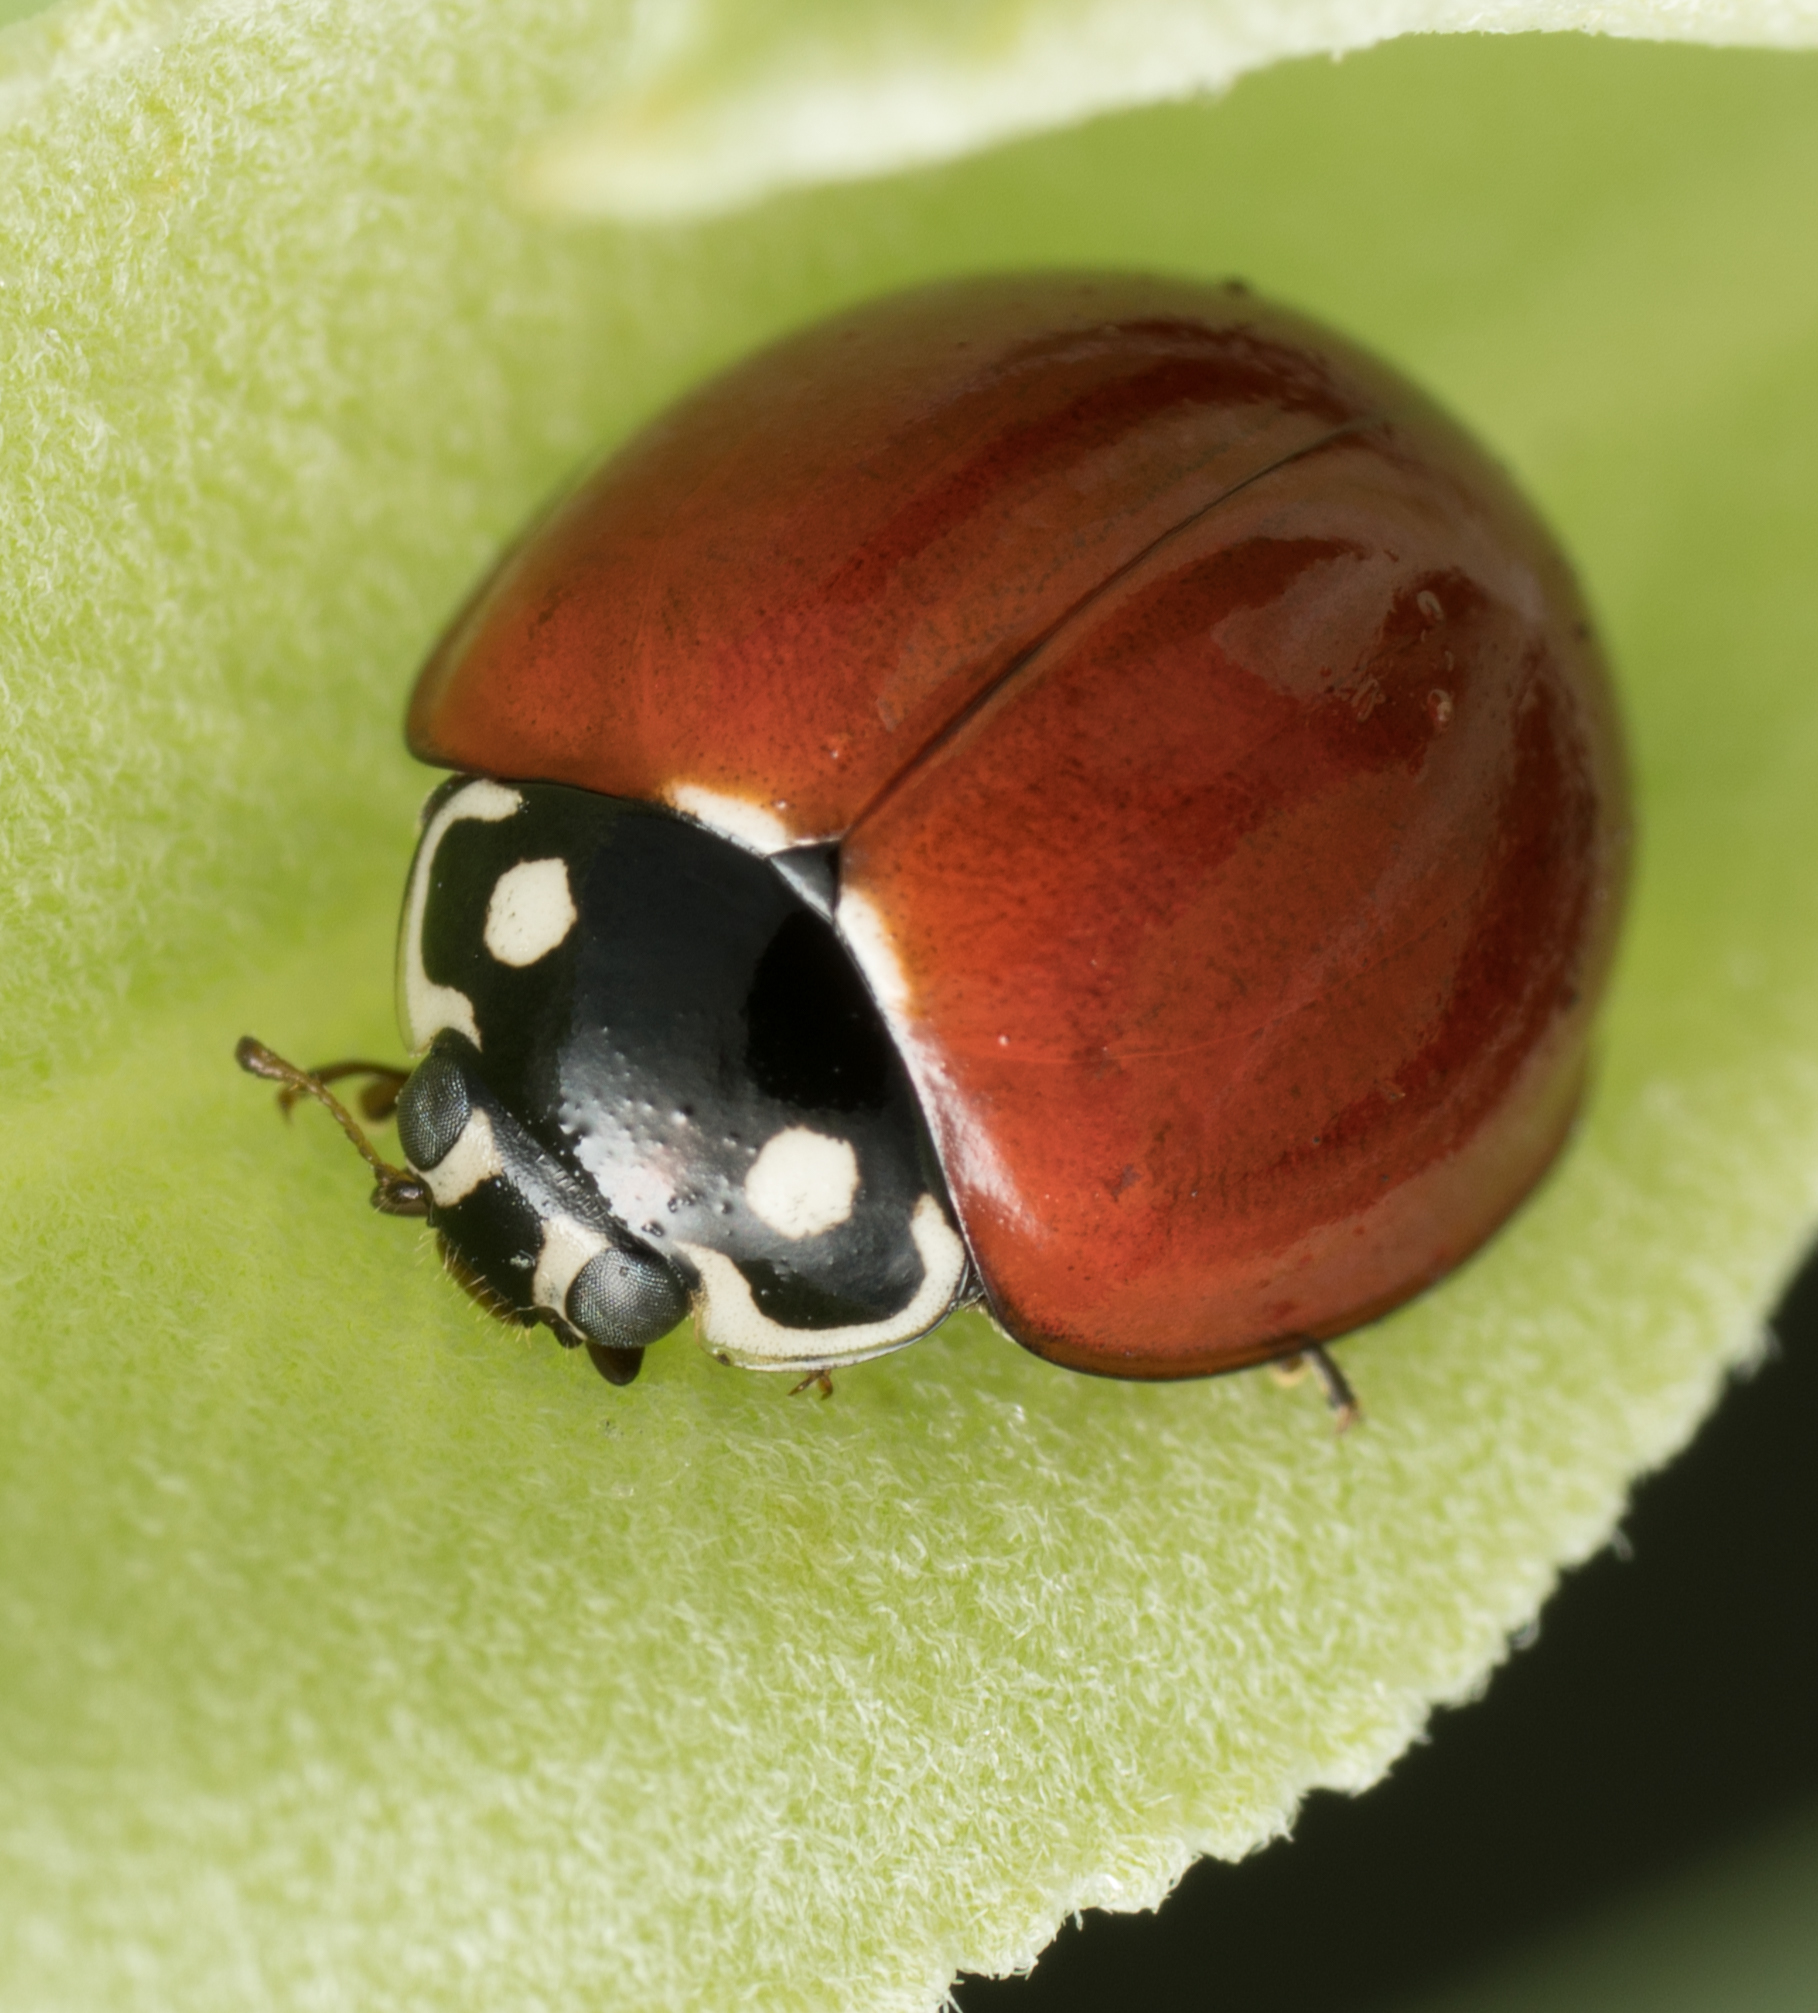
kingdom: Animalia
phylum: Arthropoda
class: Insecta
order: Coleoptera
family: Coccinellidae
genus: Cycloneda
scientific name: Cycloneda sanguinea
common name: Ladybird beetle
